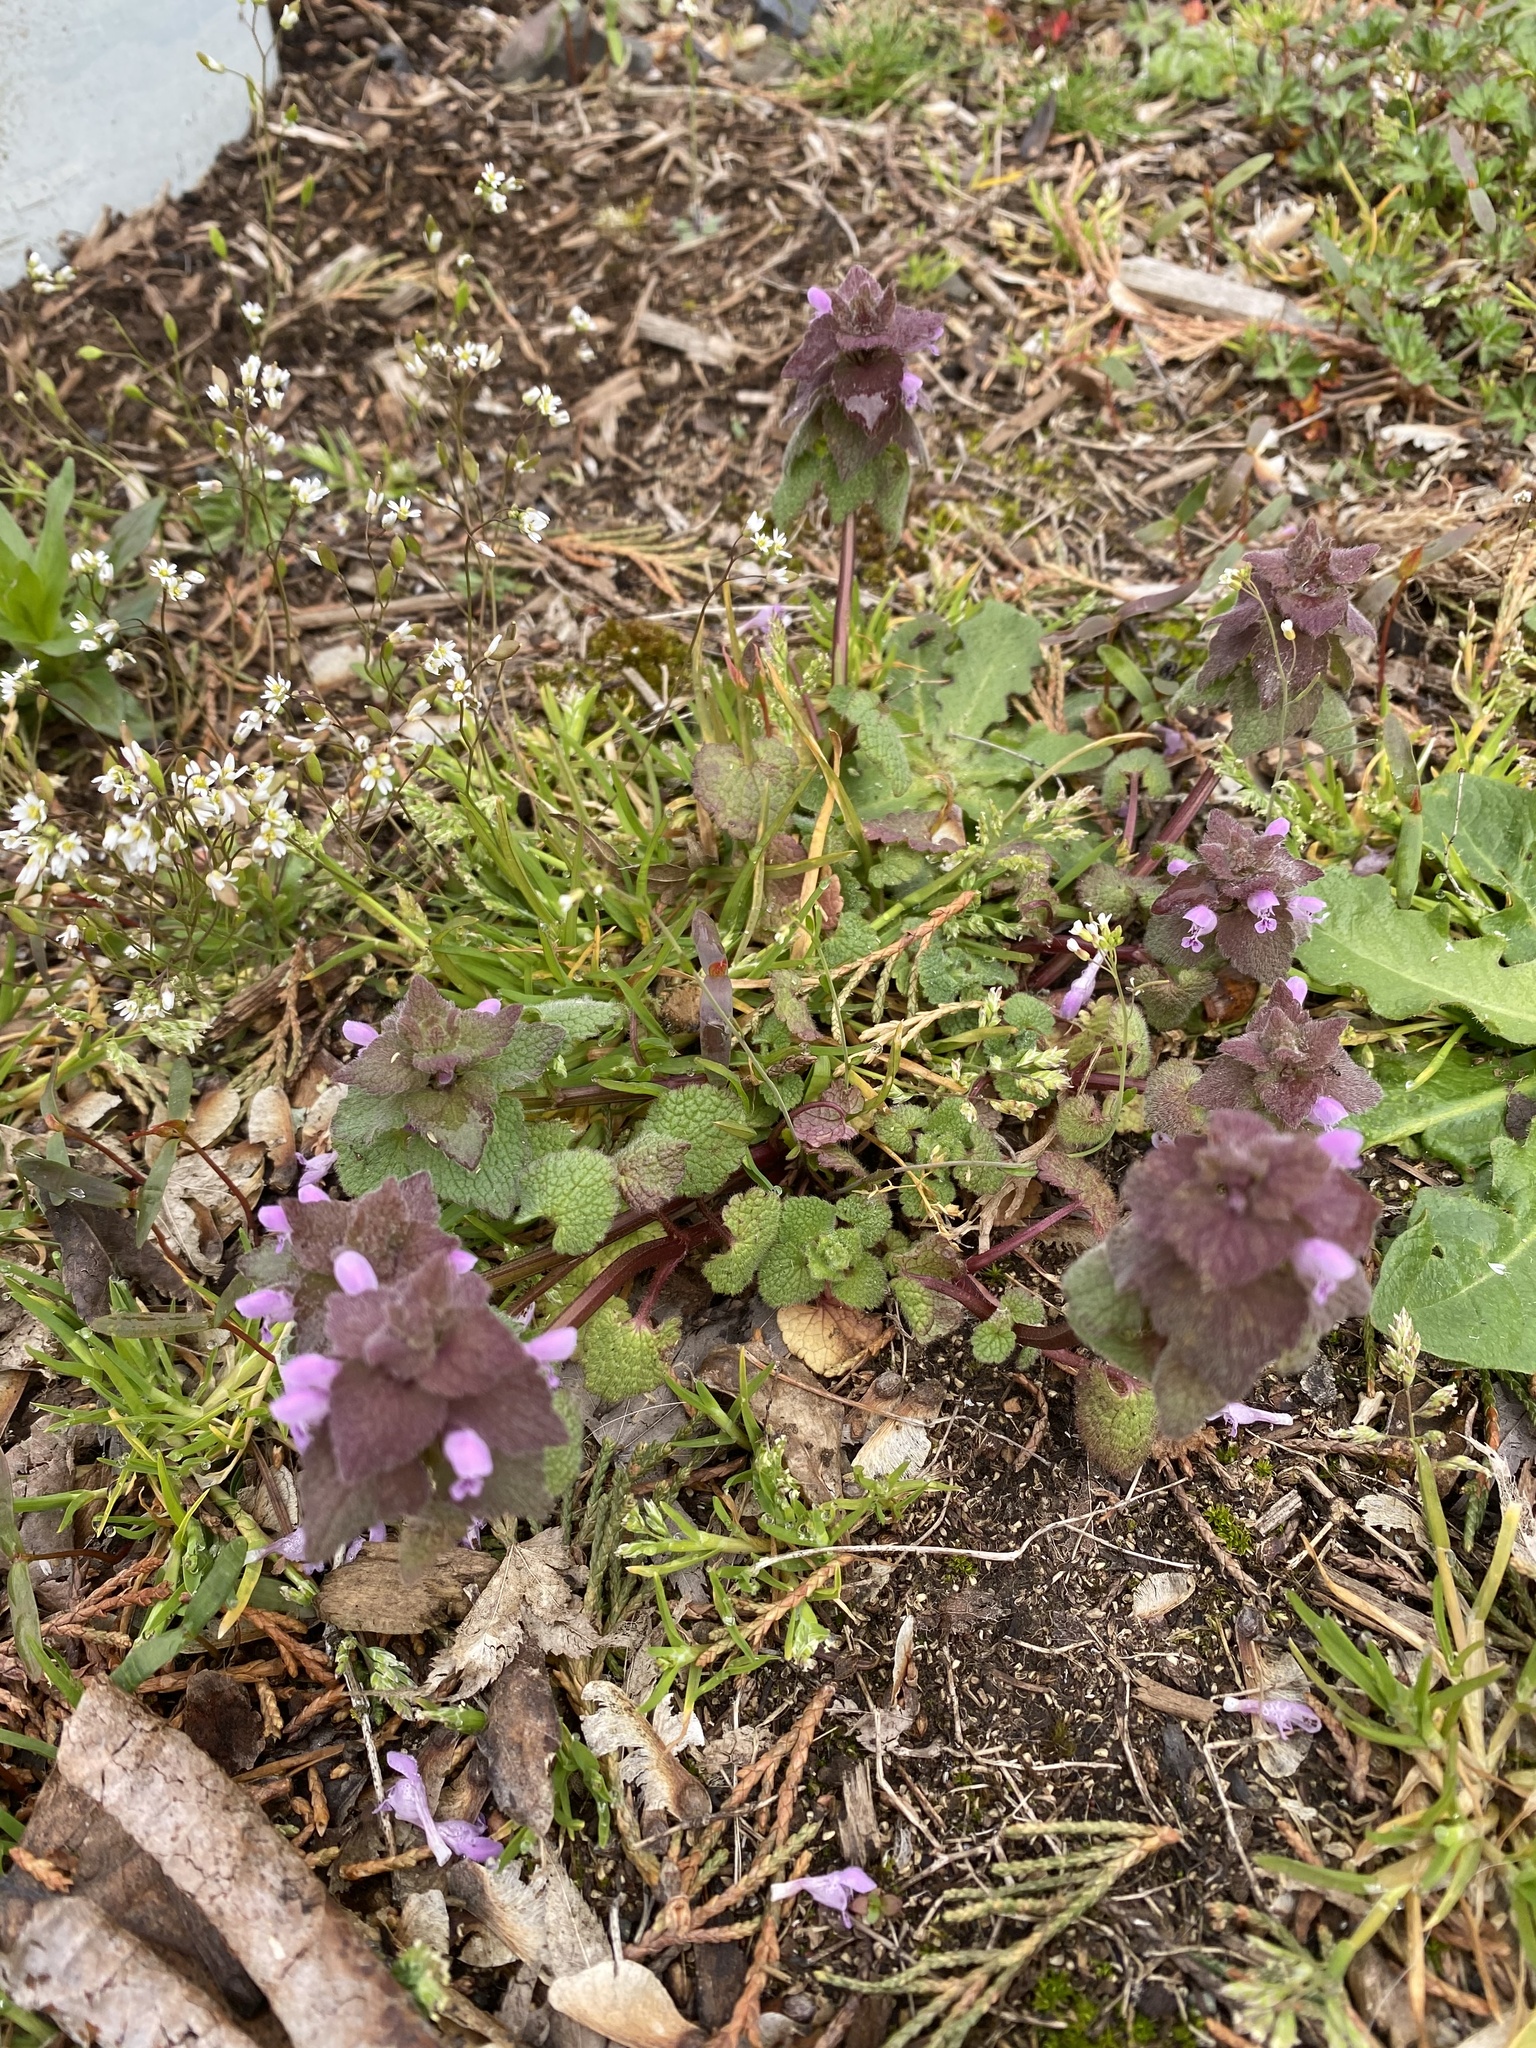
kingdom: Plantae
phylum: Tracheophyta
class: Magnoliopsida
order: Lamiales
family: Lamiaceae
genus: Lamium
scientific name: Lamium purpureum
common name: Red dead-nettle
